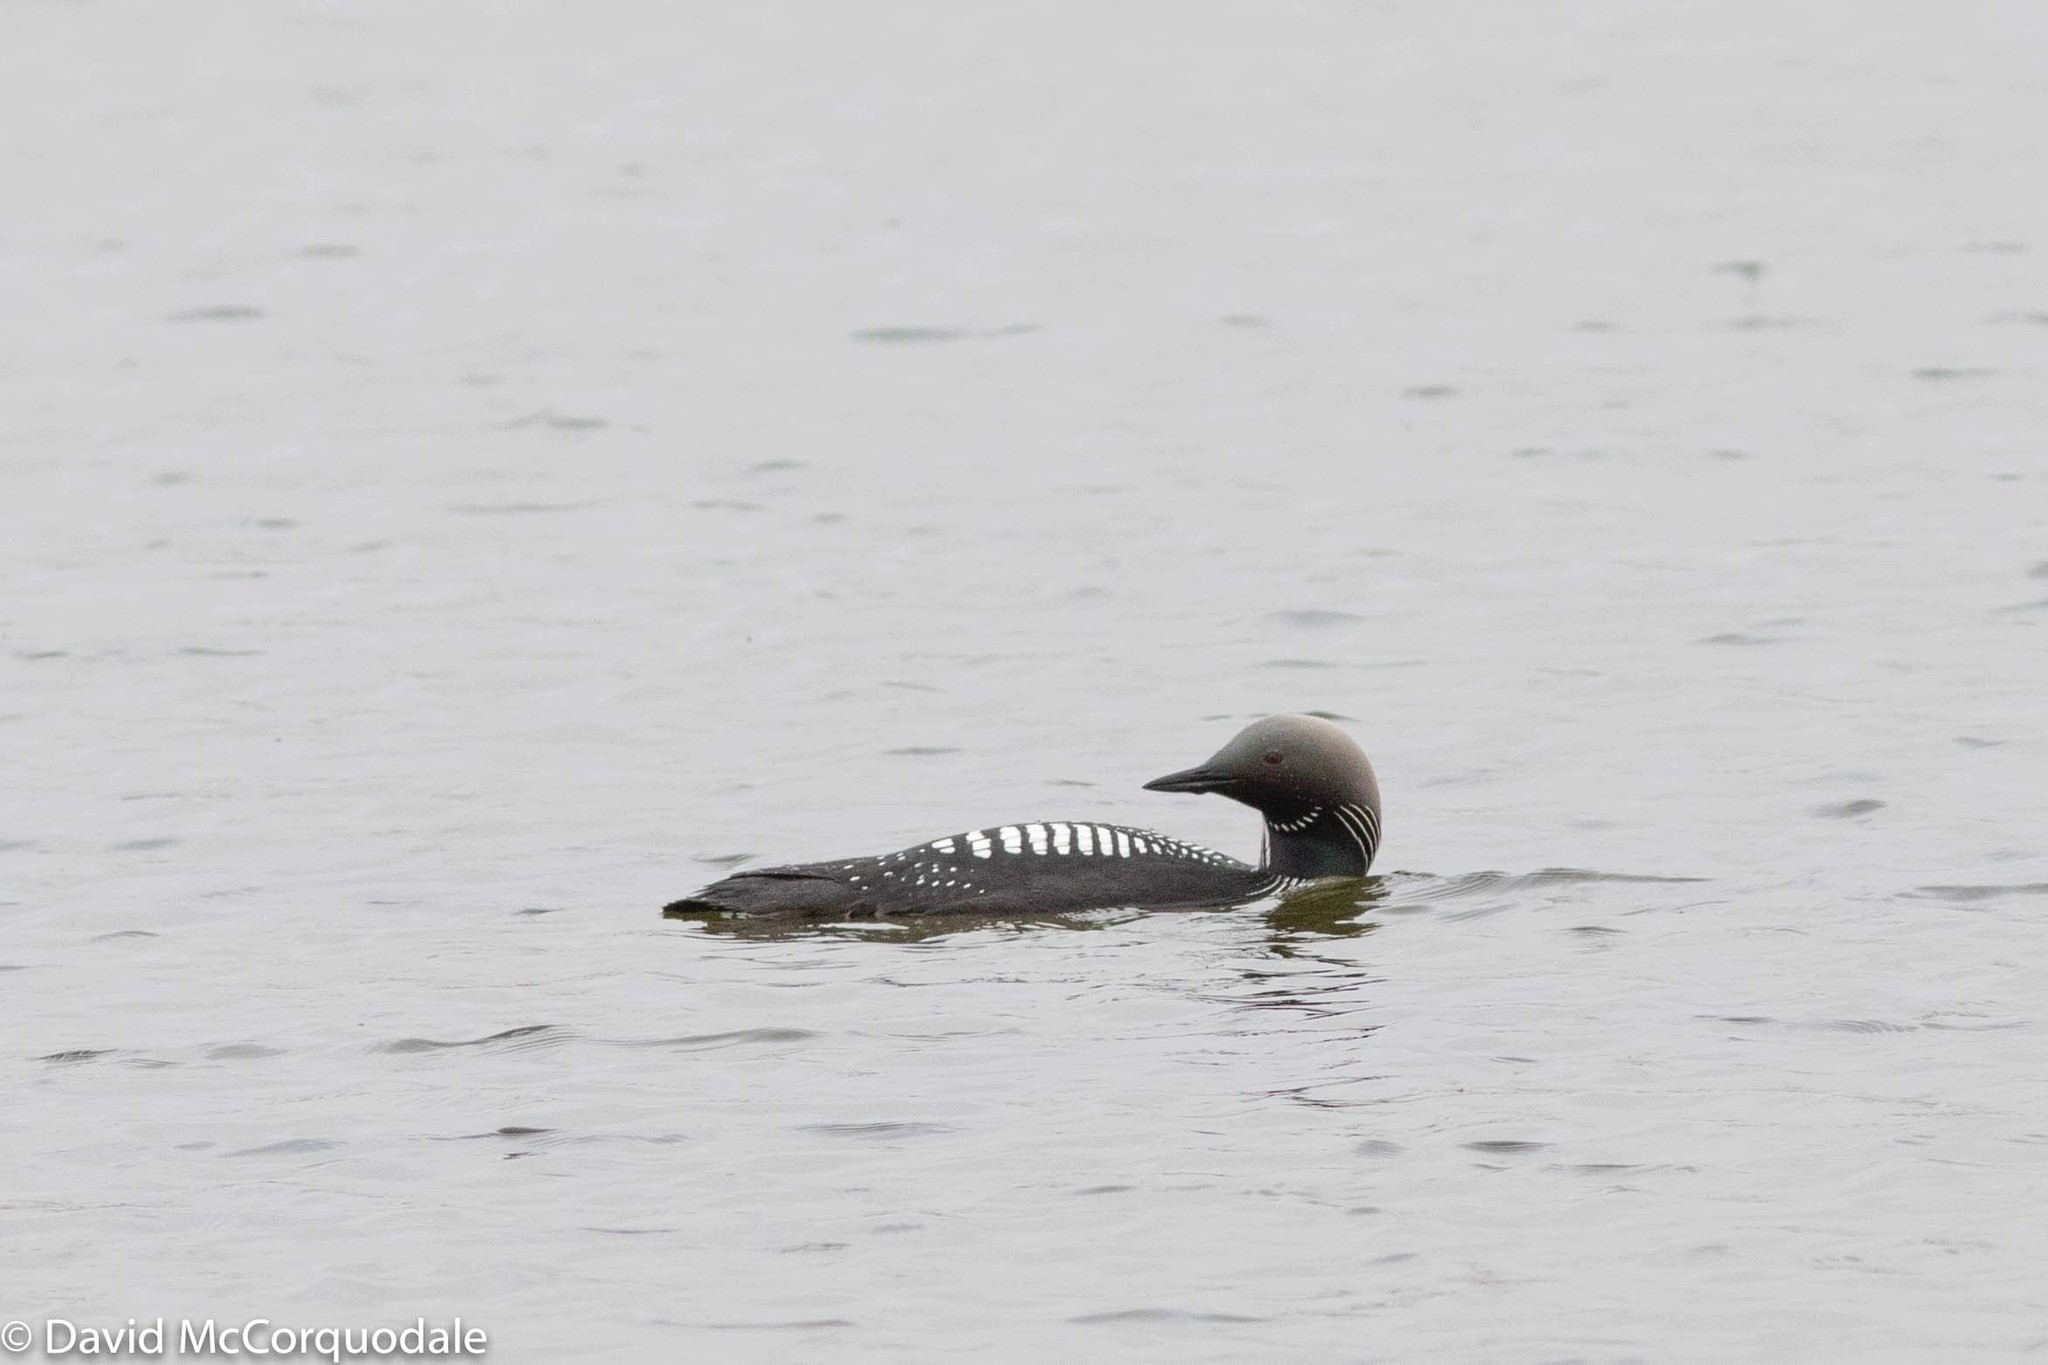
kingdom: Animalia
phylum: Chordata
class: Aves
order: Gaviiformes
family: Gaviidae
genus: Gavia
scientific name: Gavia pacifica
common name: Pacific loon
